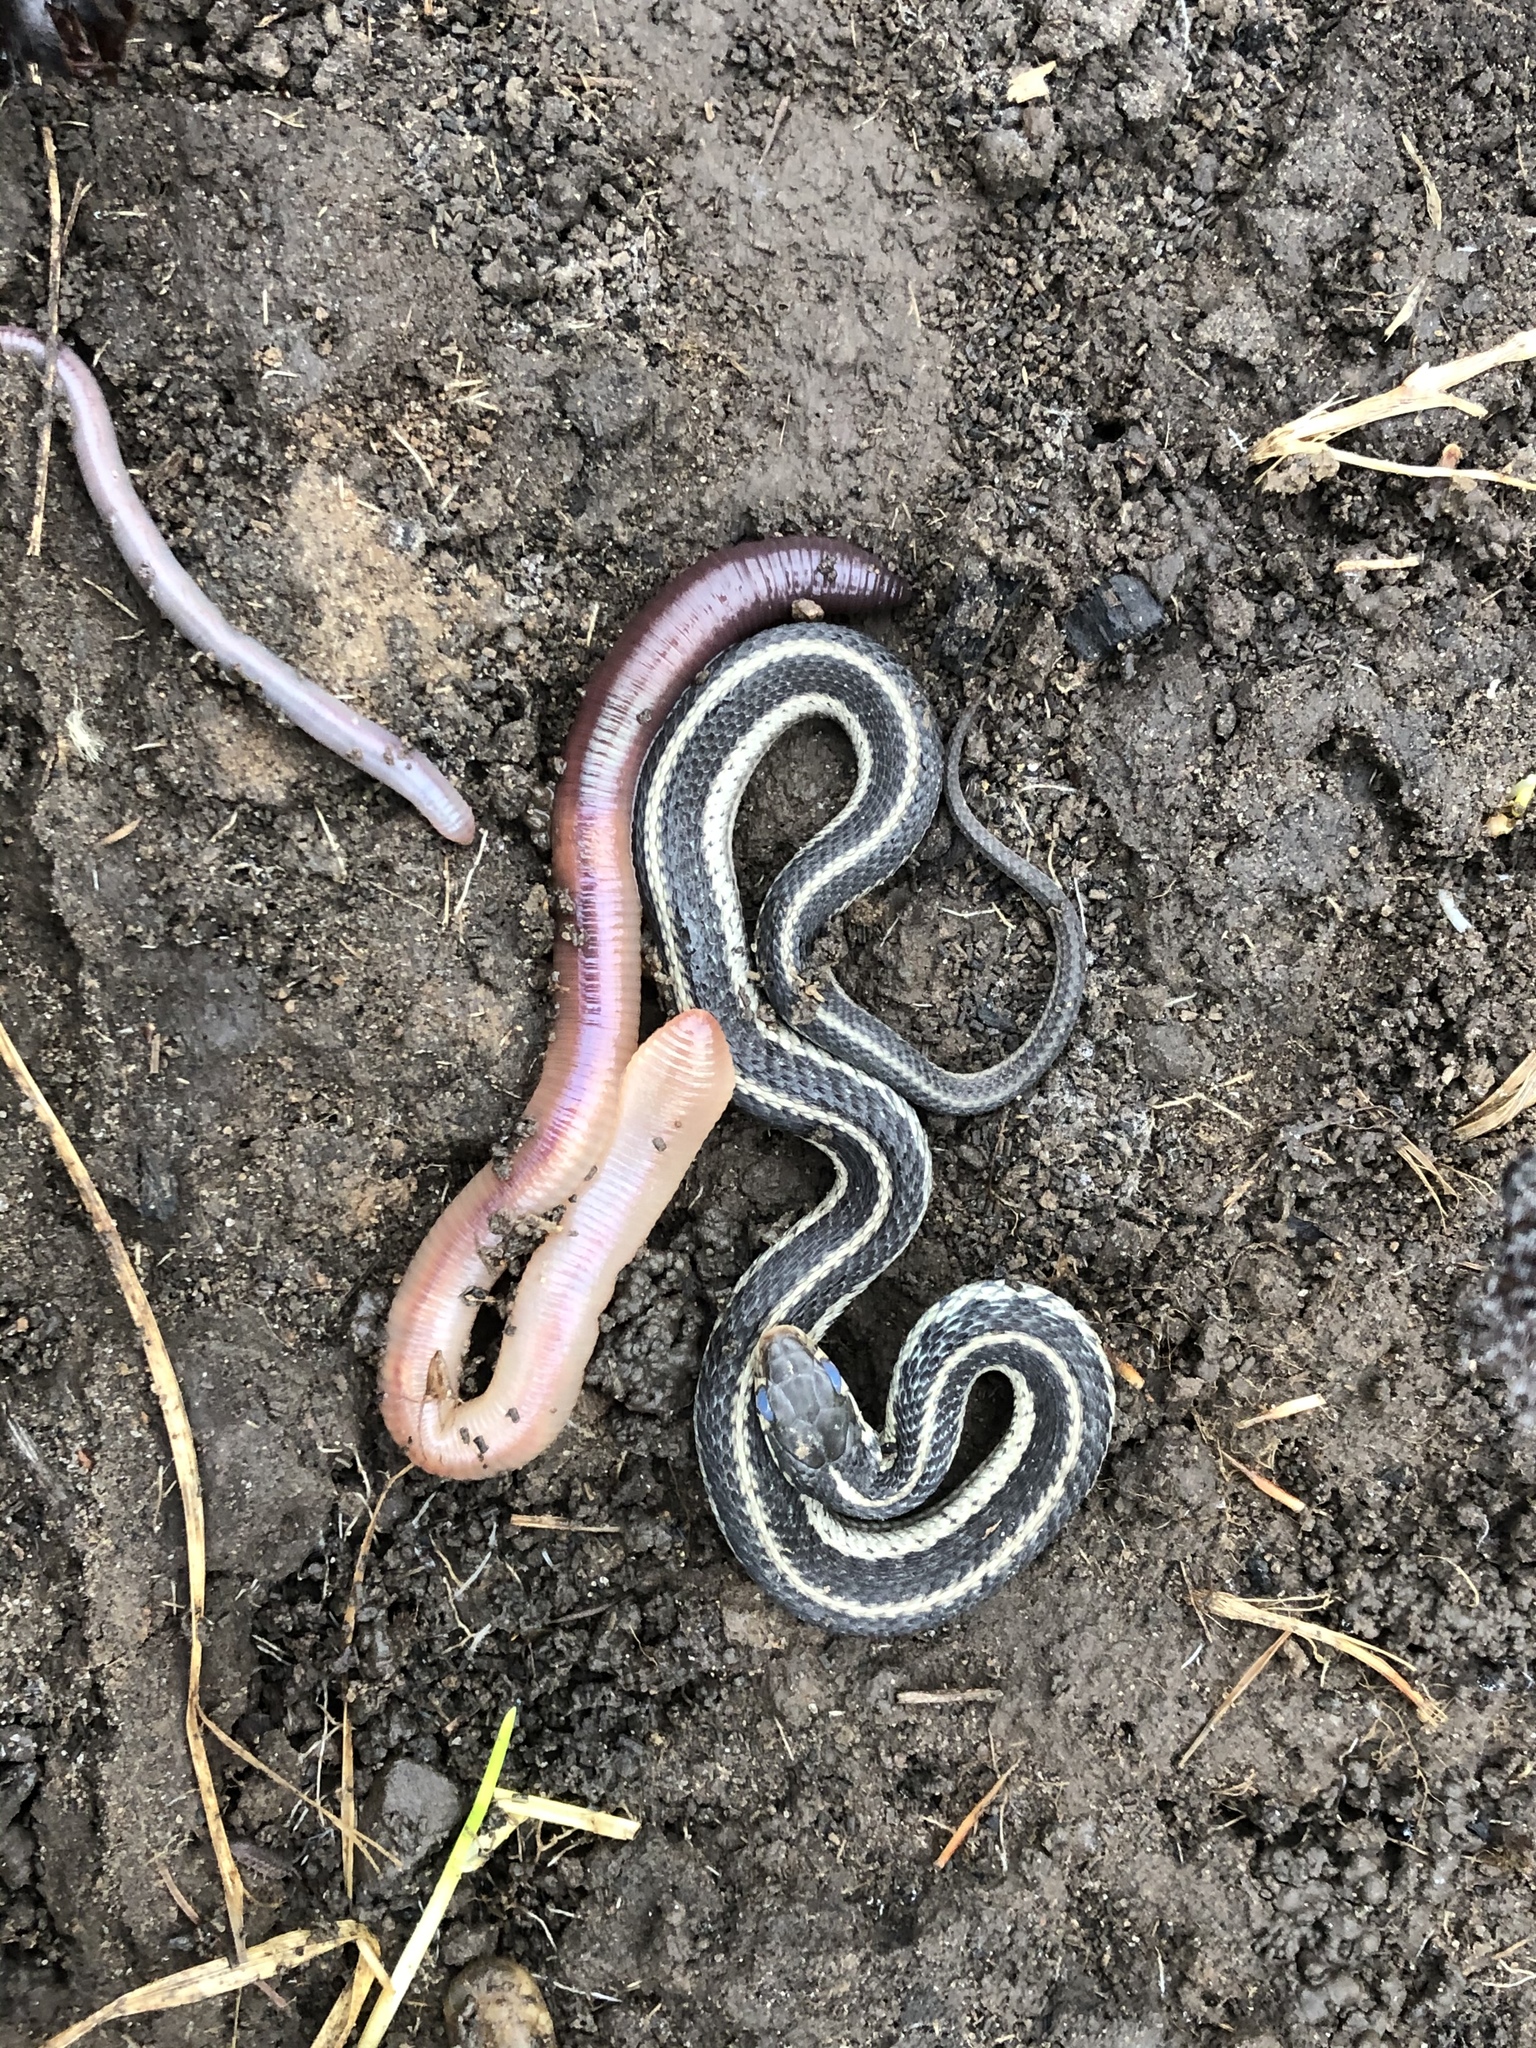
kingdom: Animalia
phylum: Chordata
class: Squamata
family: Colubridae
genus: Thamnophis
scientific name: Thamnophis sirtalis
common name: Common garter snake
